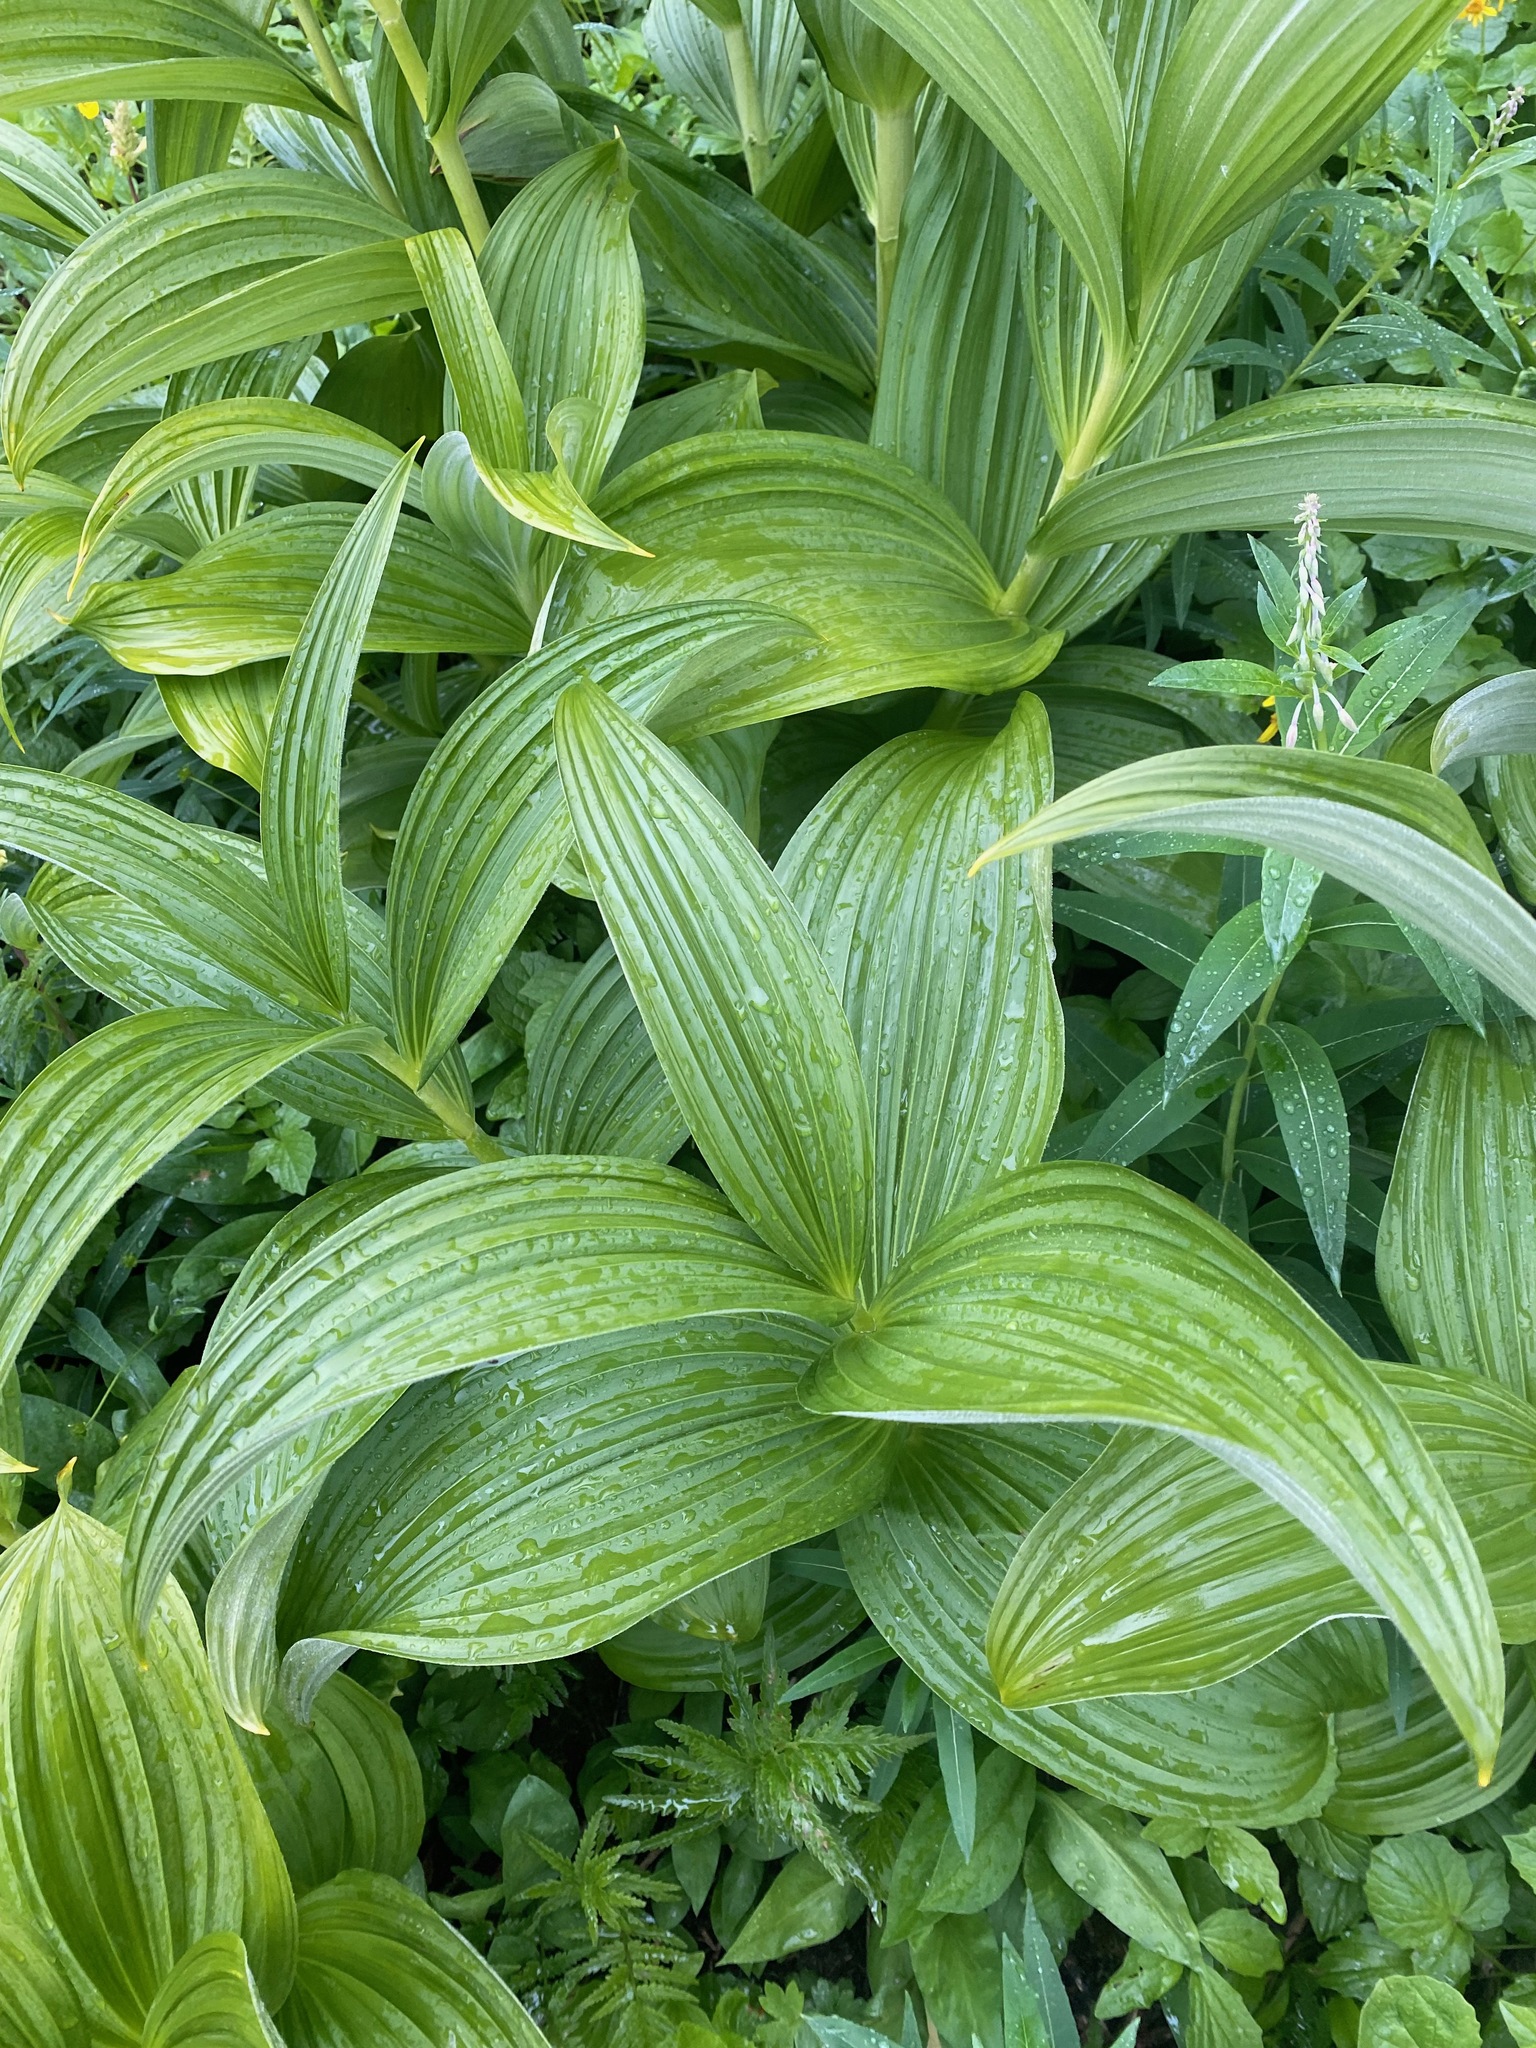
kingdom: Plantae
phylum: Tracheophyta
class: Liliopsida
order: Liliales
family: Melanthiaceae
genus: Veratrum
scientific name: Veratrum viride
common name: American false hellebore
